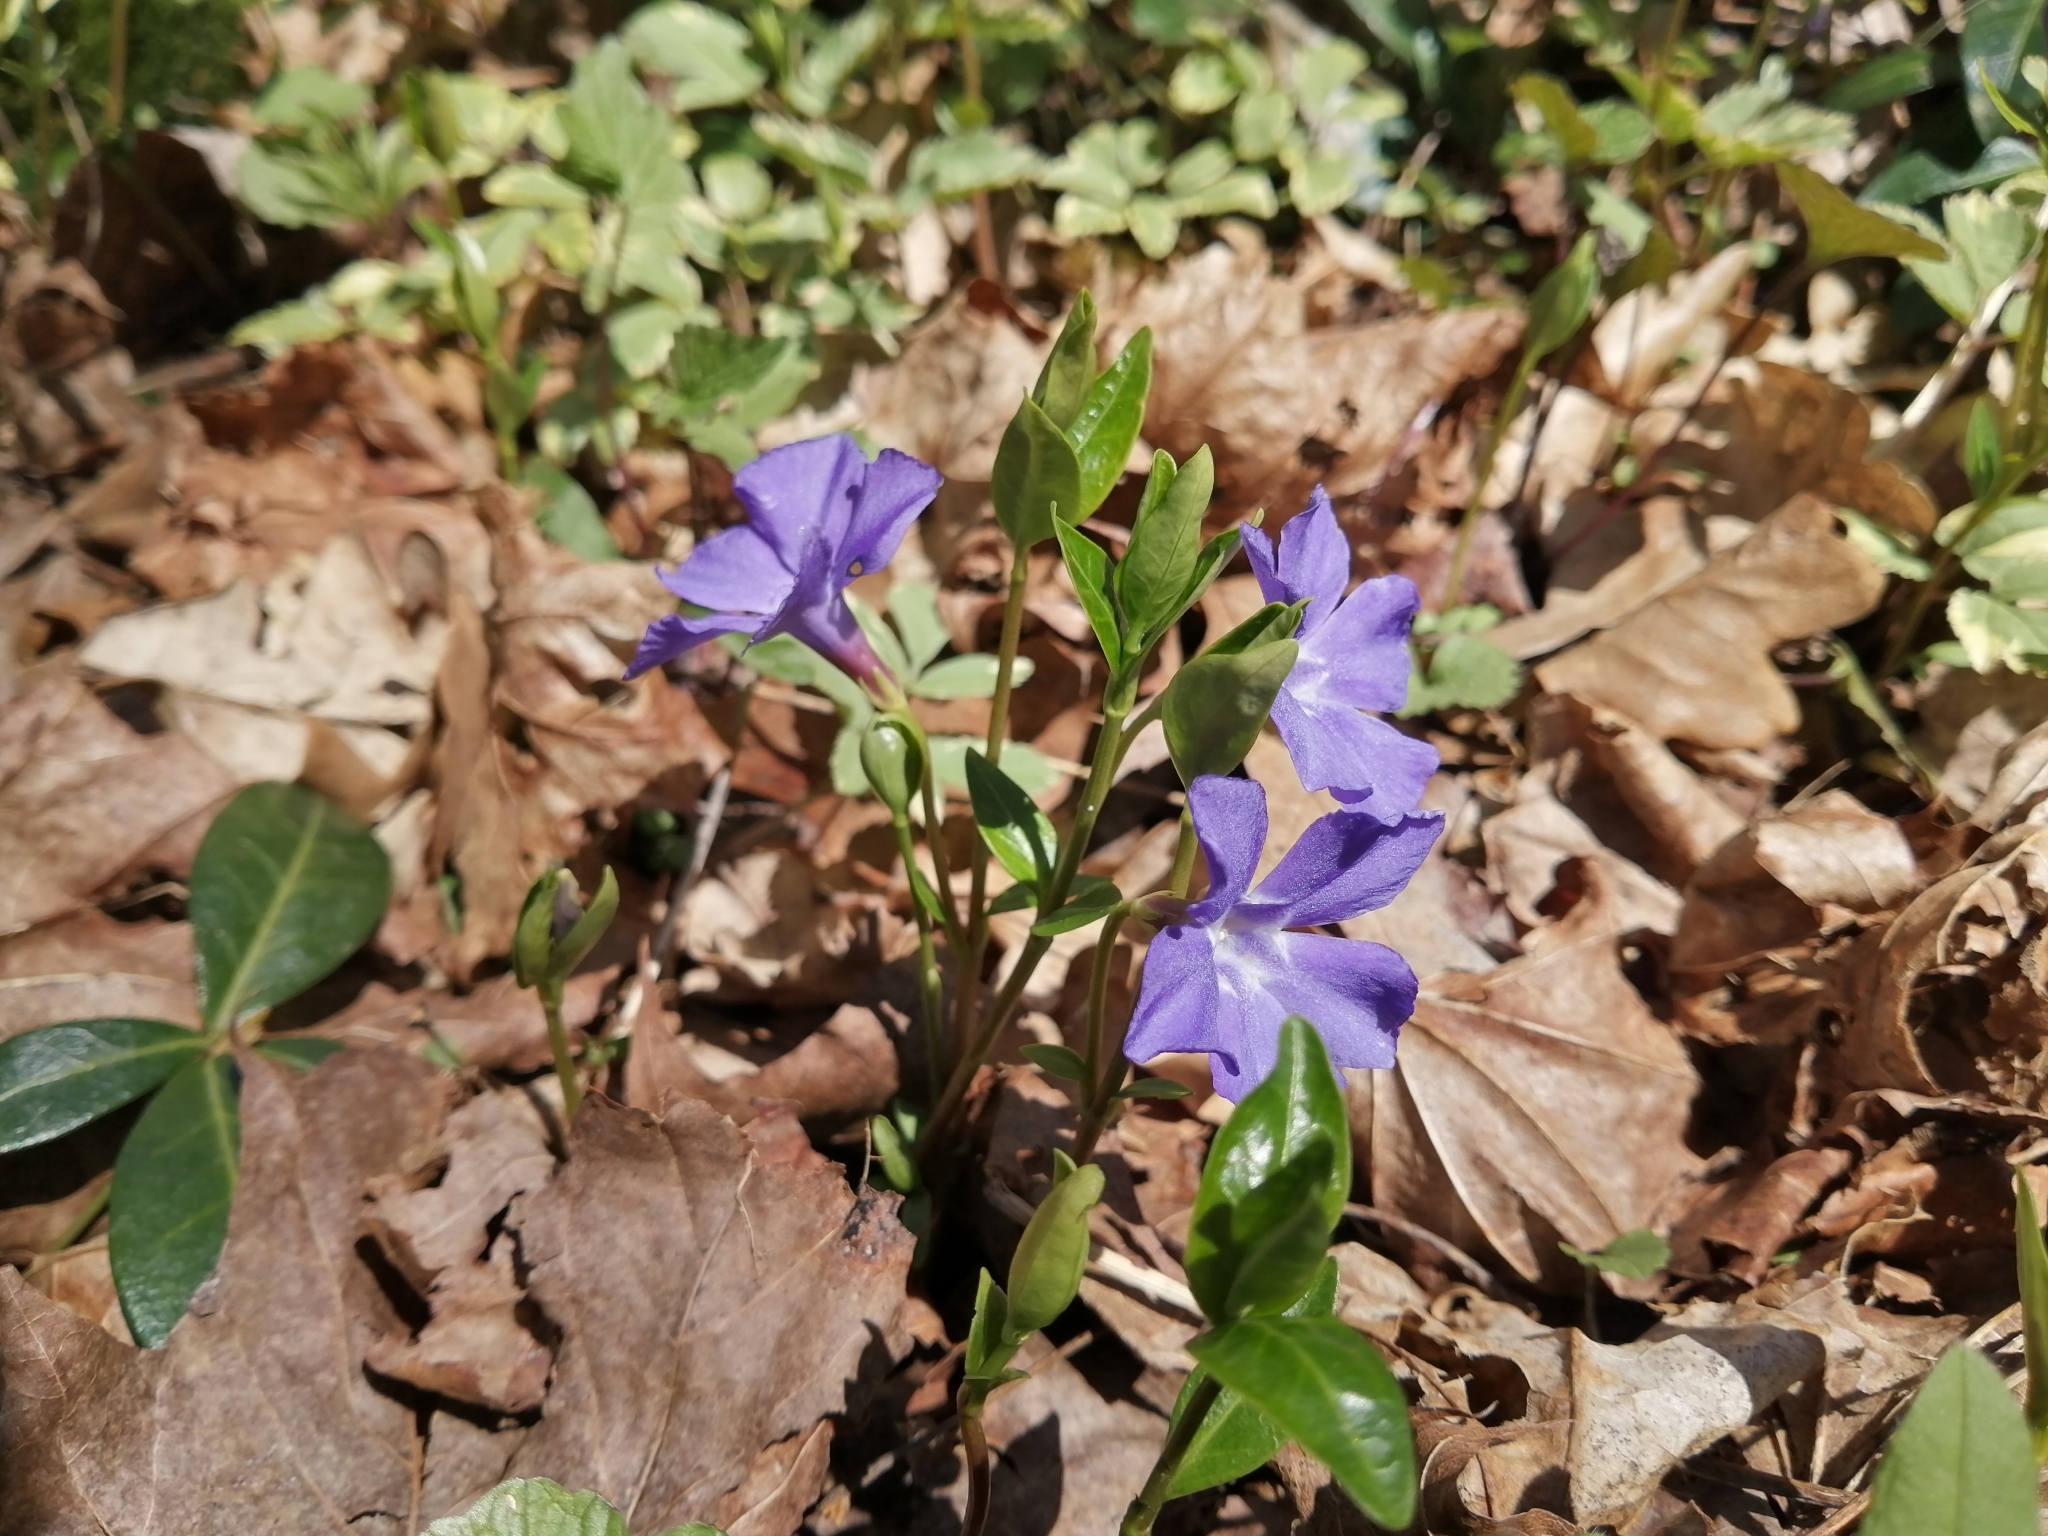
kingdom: Plantae
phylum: Tracheophyta
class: Magnoliopsida
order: Gentianales
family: Apocynaceae
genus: Vinca
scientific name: Vinca minor
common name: Lesser periwinkle
